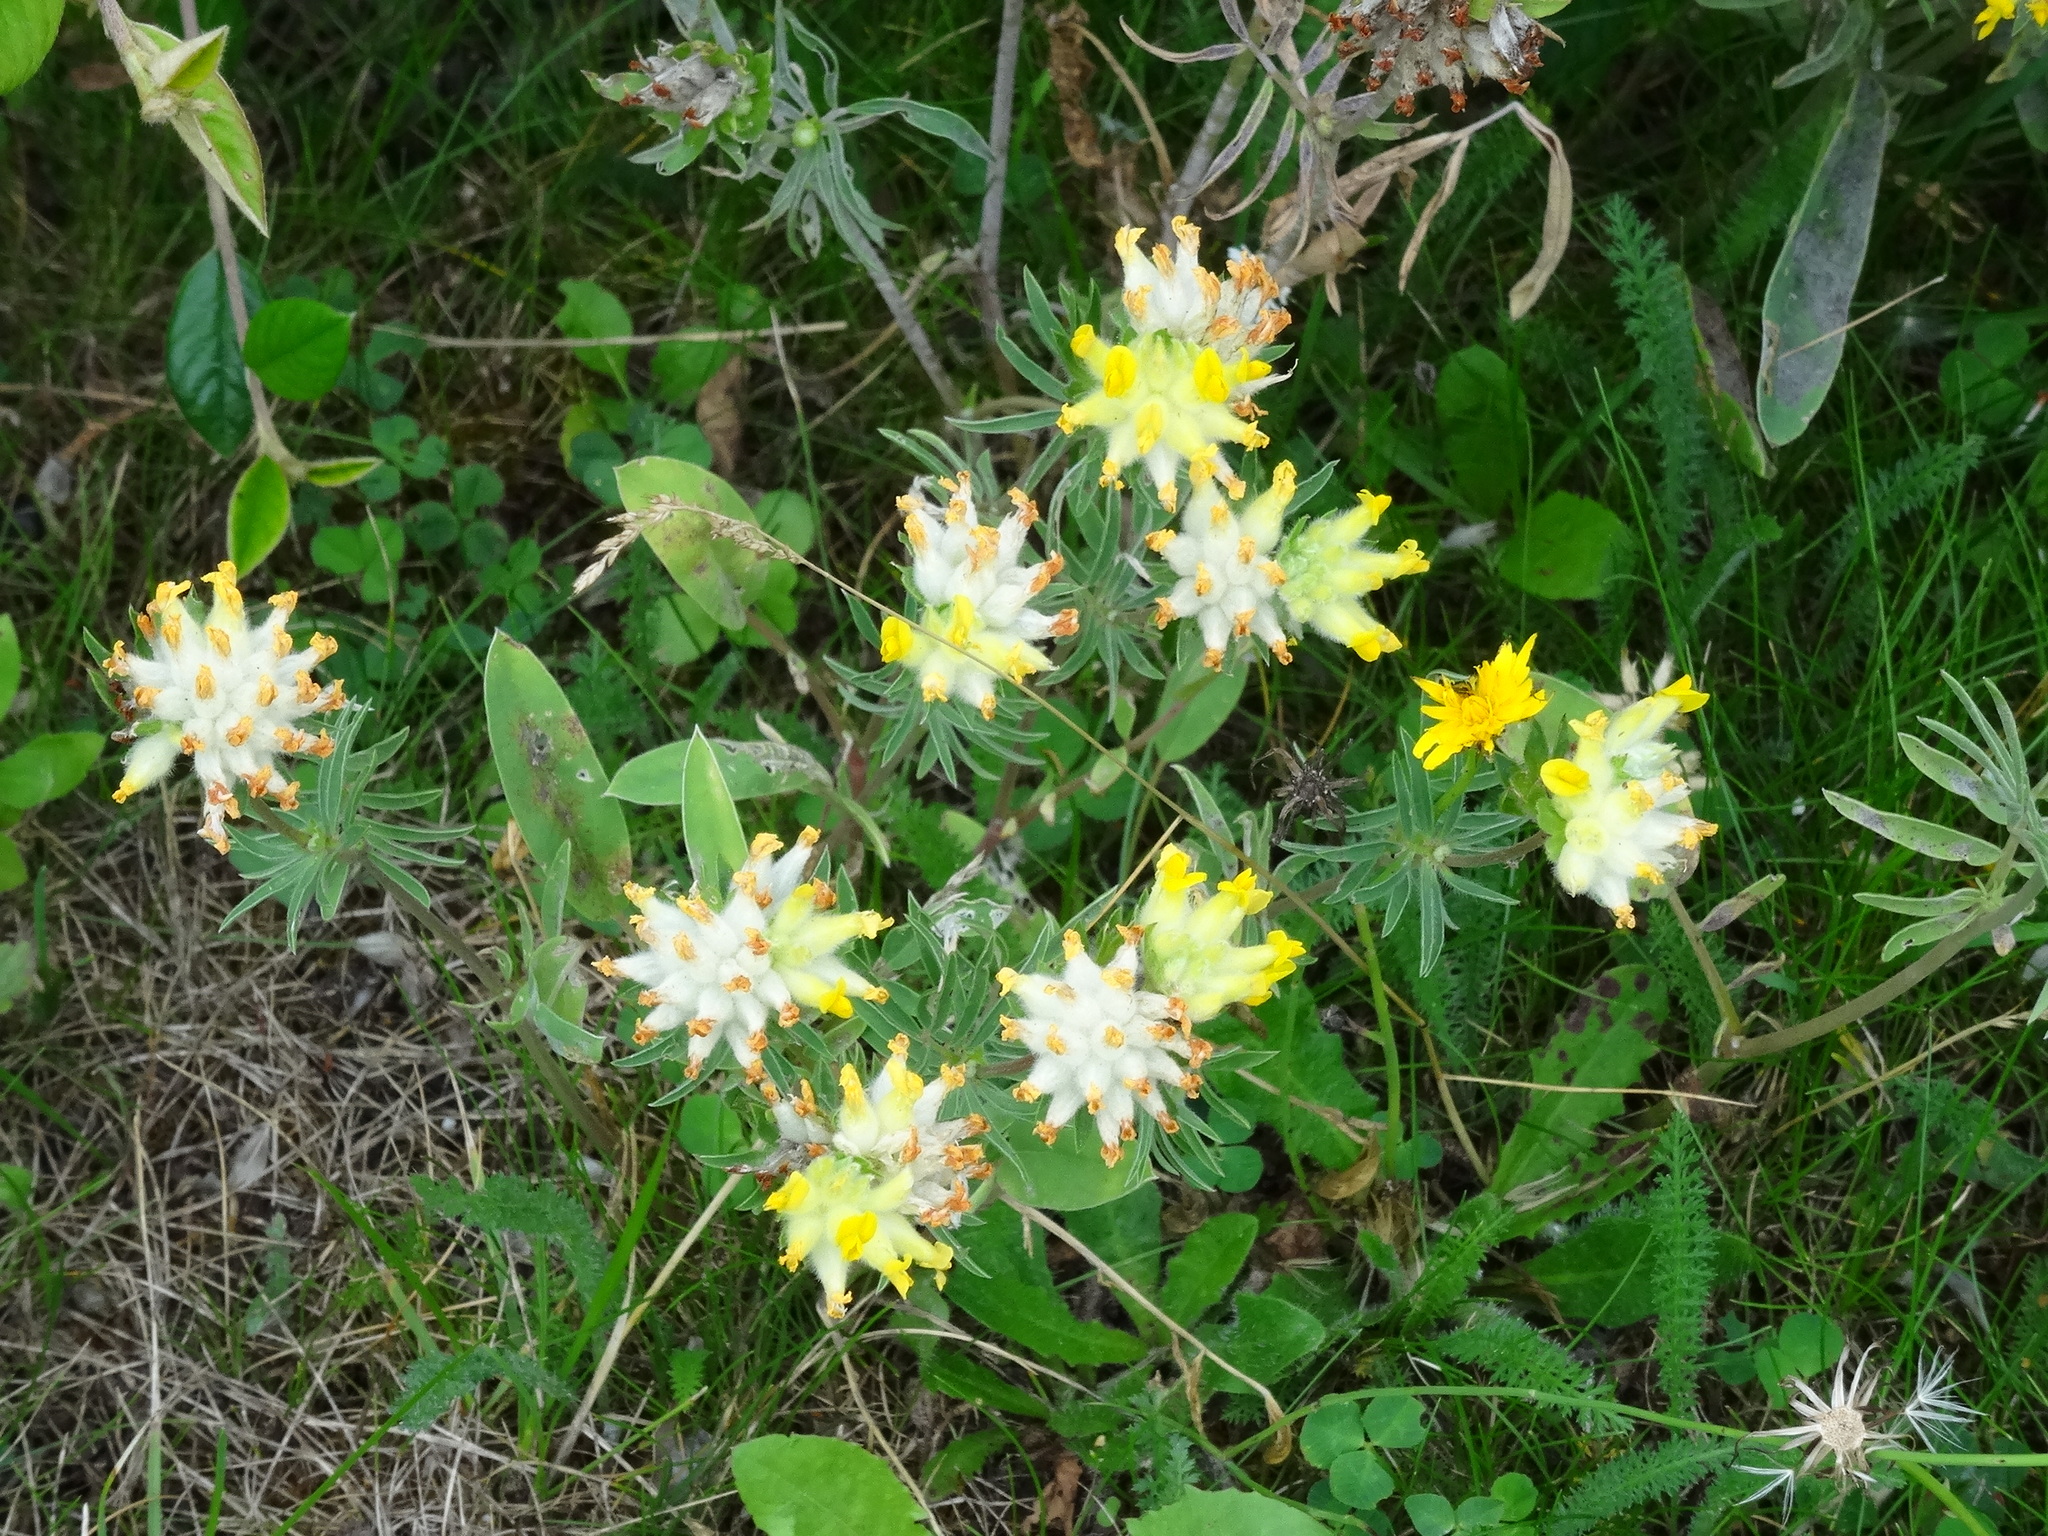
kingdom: Plantae
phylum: Tracheophyta
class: Magnoliopsida
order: Fabales
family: Fabaceae
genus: Anthyllis
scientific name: Anthyllis vulneraria
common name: Kidney vetch
